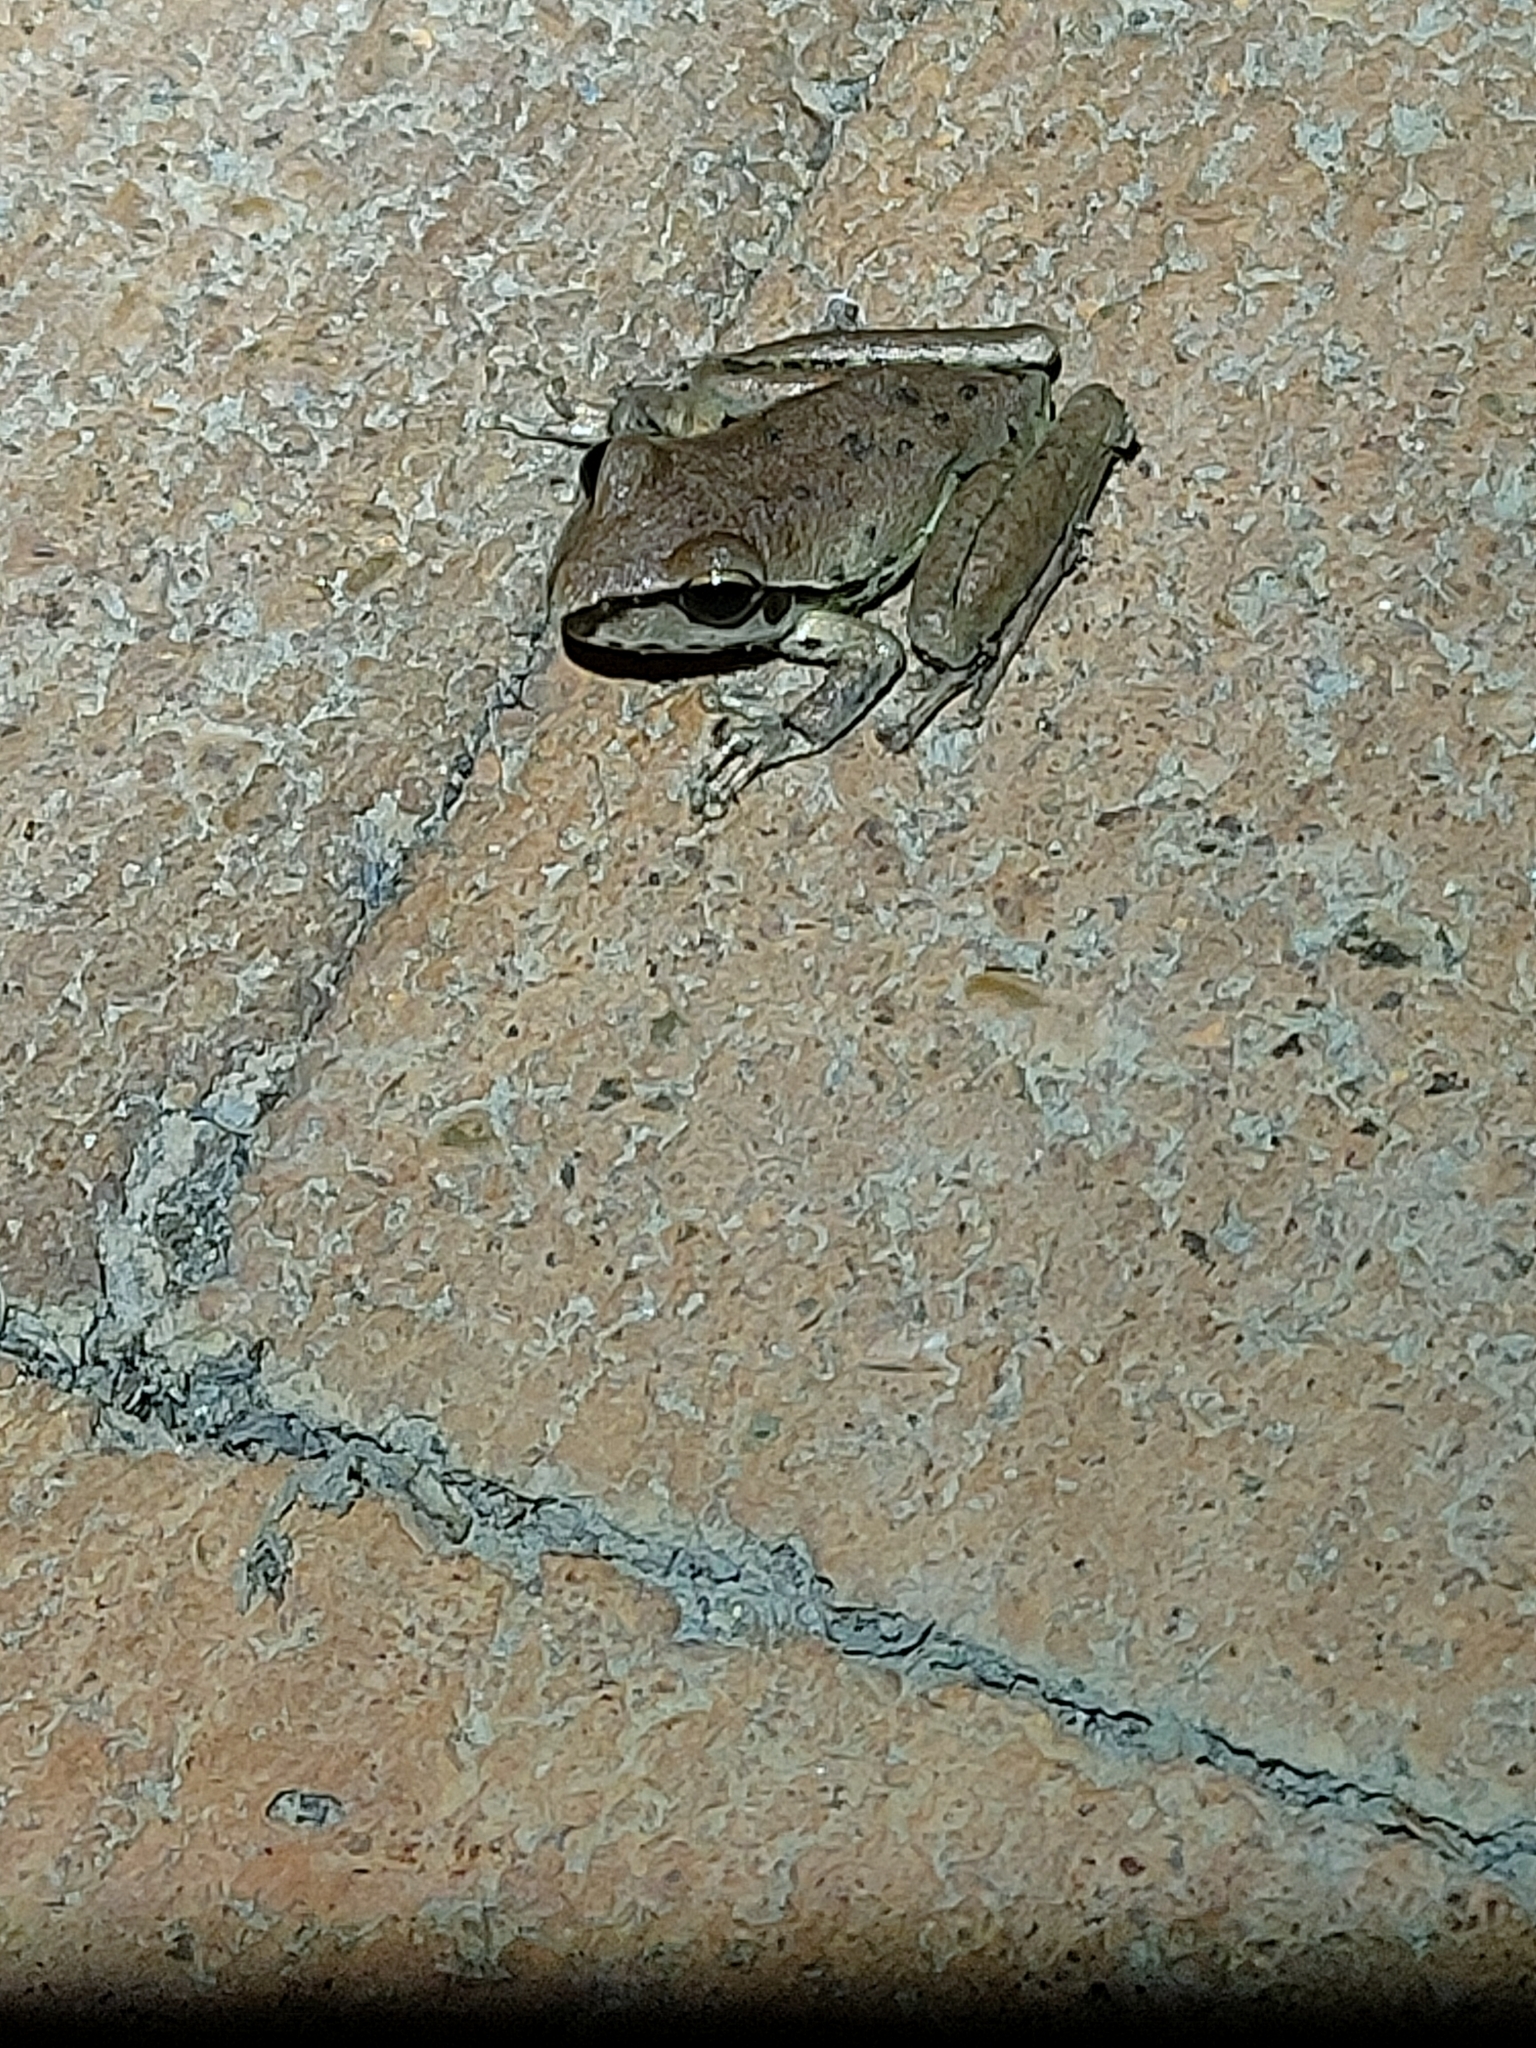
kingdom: Animalia
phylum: Chordata
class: Amphibia
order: Anura
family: Pelodryadidae
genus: Ranoidea
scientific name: Ranoidea wilcoxii
